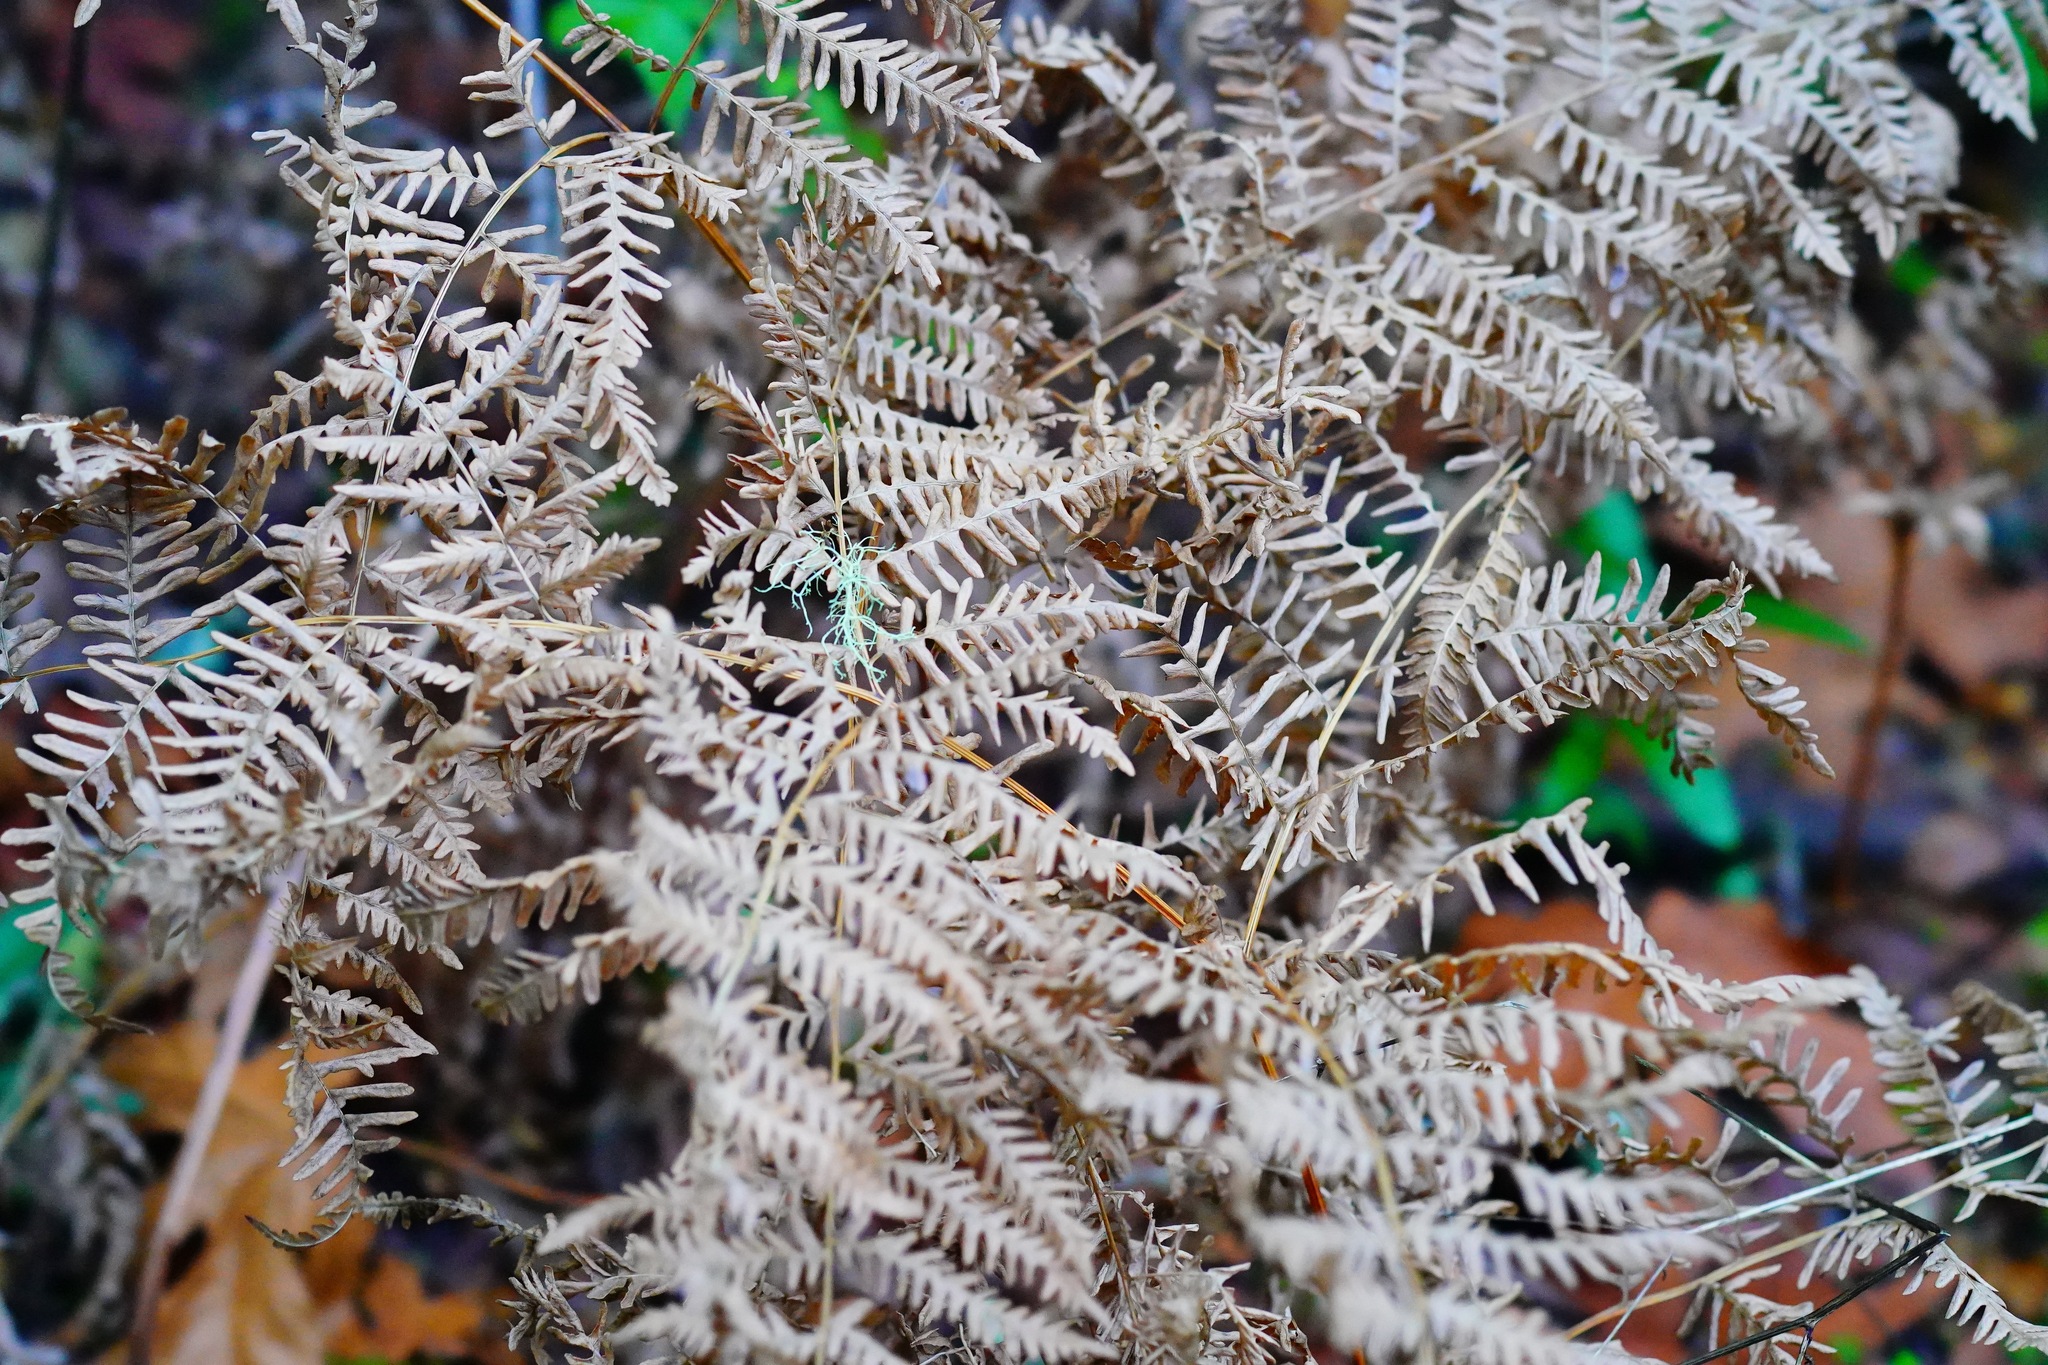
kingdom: Plantae
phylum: Tracheophyta
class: Polypodiopsida
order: Polypodiales
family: Dennstaedtiaceae
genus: Pteridium
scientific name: Pteridium aquilinum
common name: Bracken
